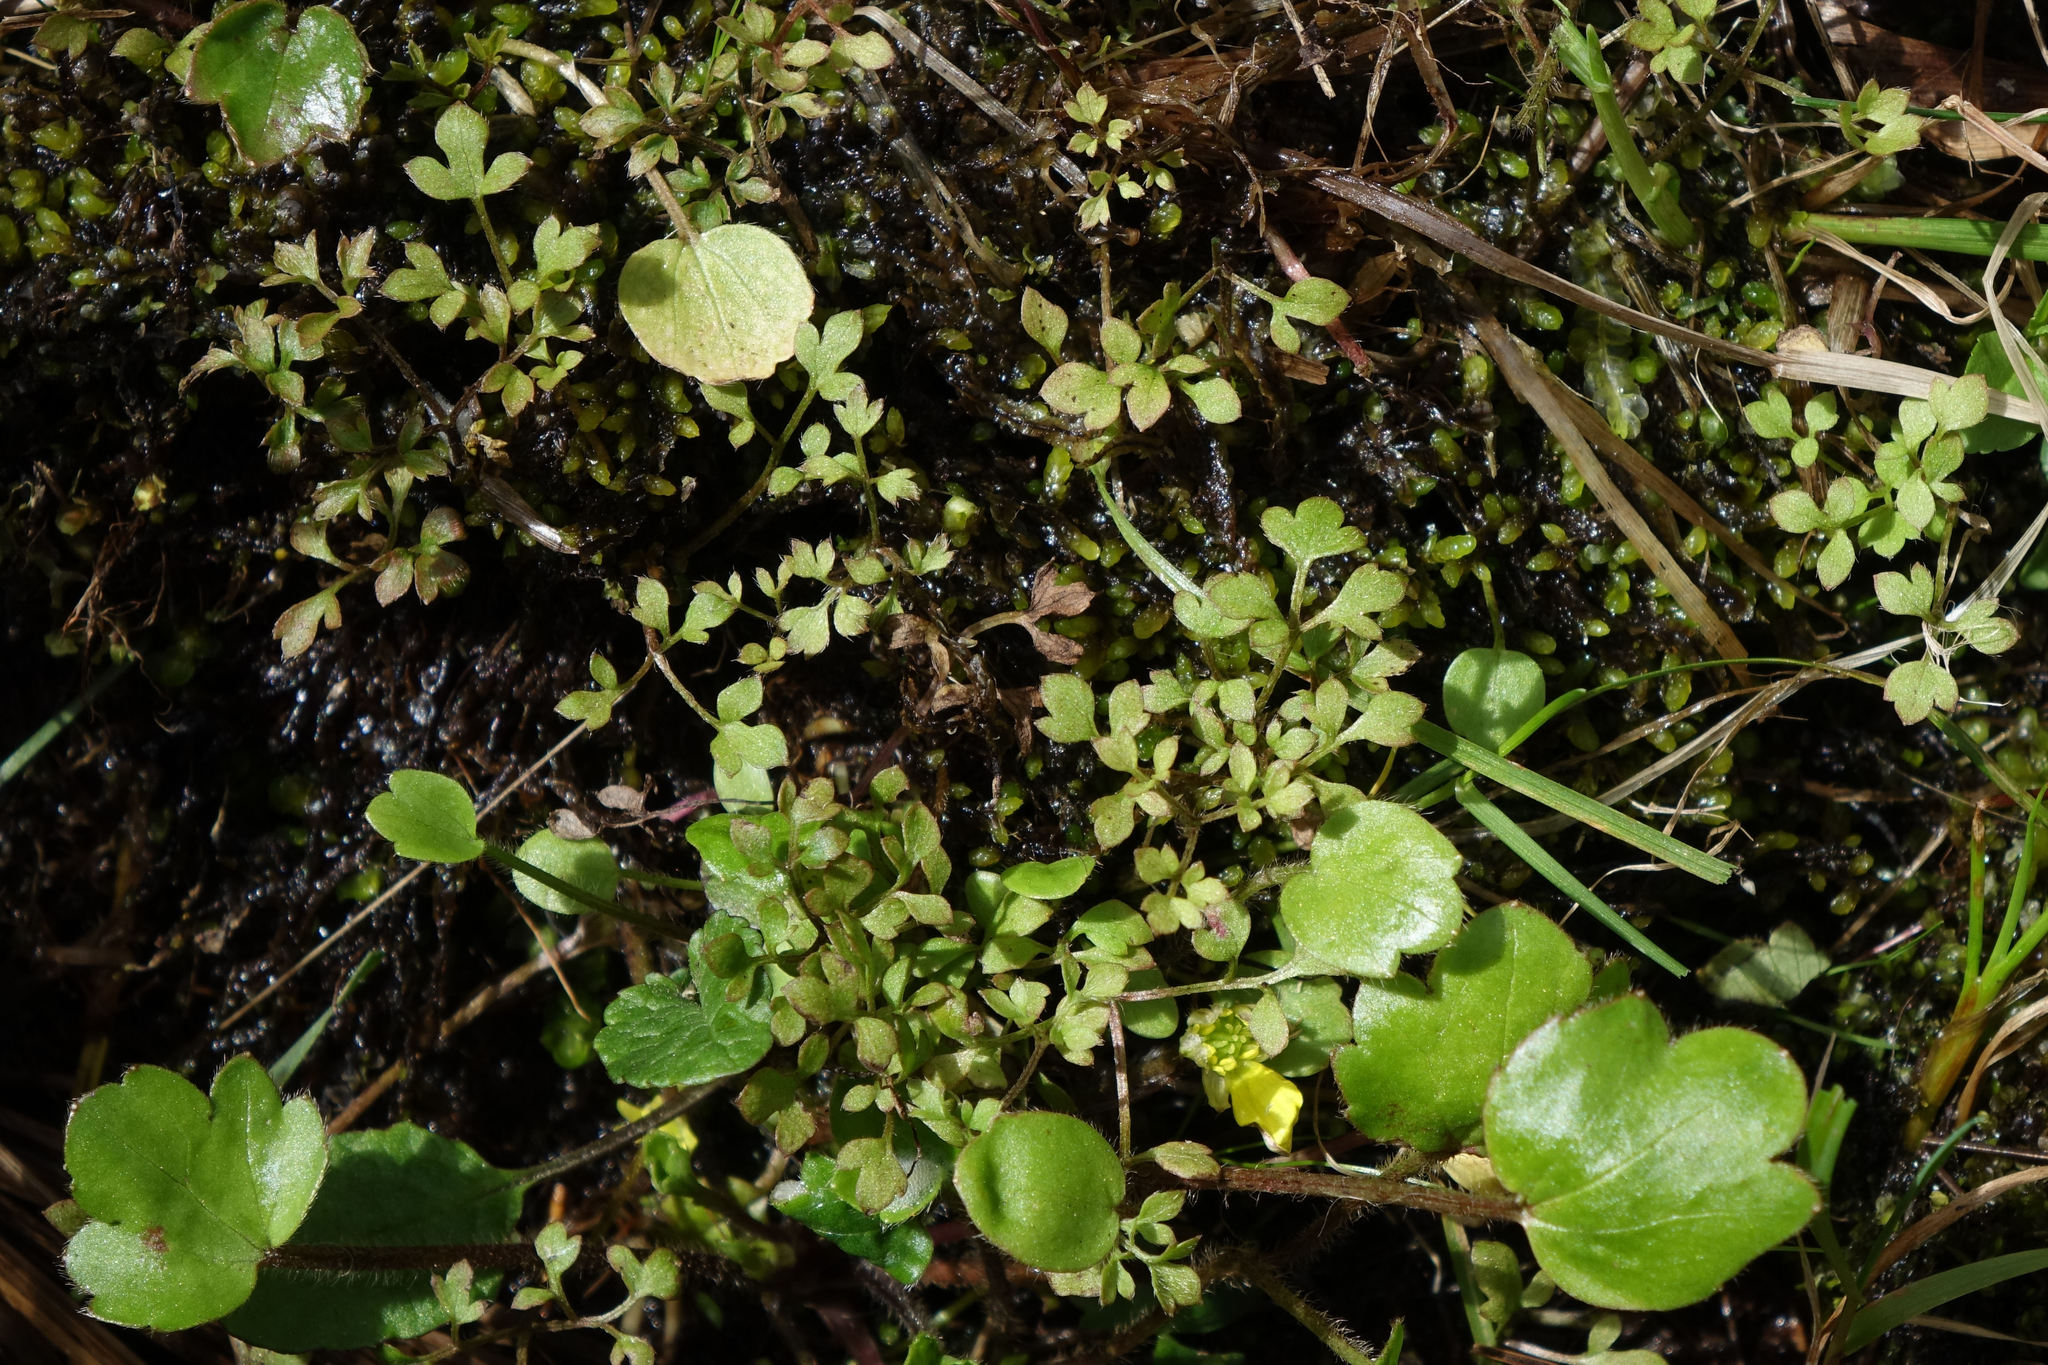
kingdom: Plantae
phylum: Tracheophyta
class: Magnoliopsida
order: Ranunculales
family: Ranunculaceae
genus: Ranunculus
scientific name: Ranunculus ternatifolius
